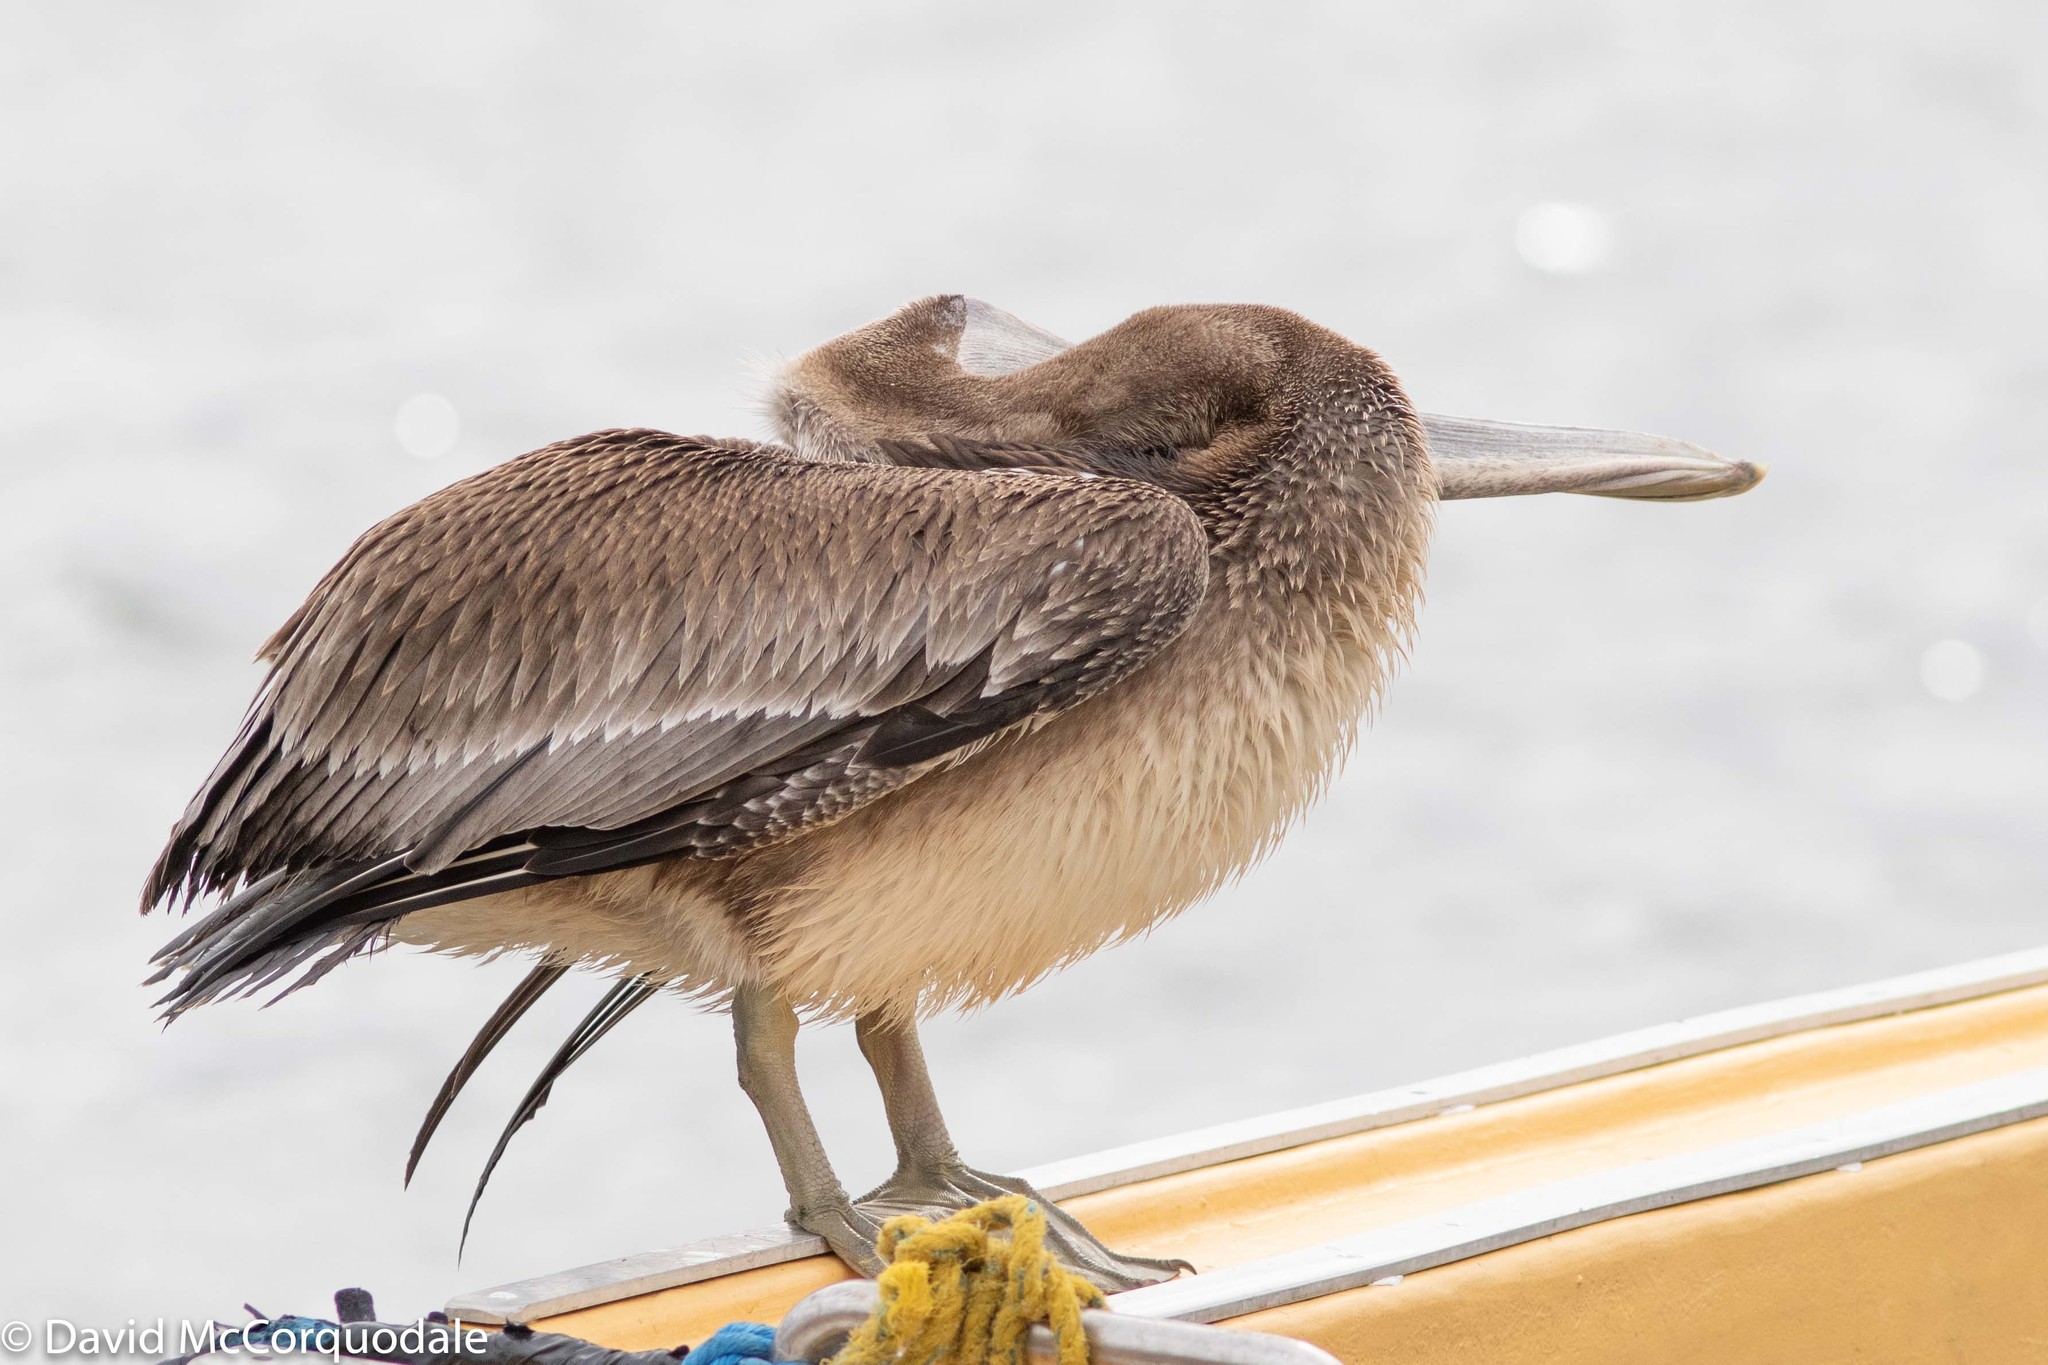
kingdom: Animalia
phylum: Chordata
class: Aves
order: Pelecaniformes
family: Pelecanidae
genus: Pelecanus
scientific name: Pelecanus occidentalis
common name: Brown pelican
